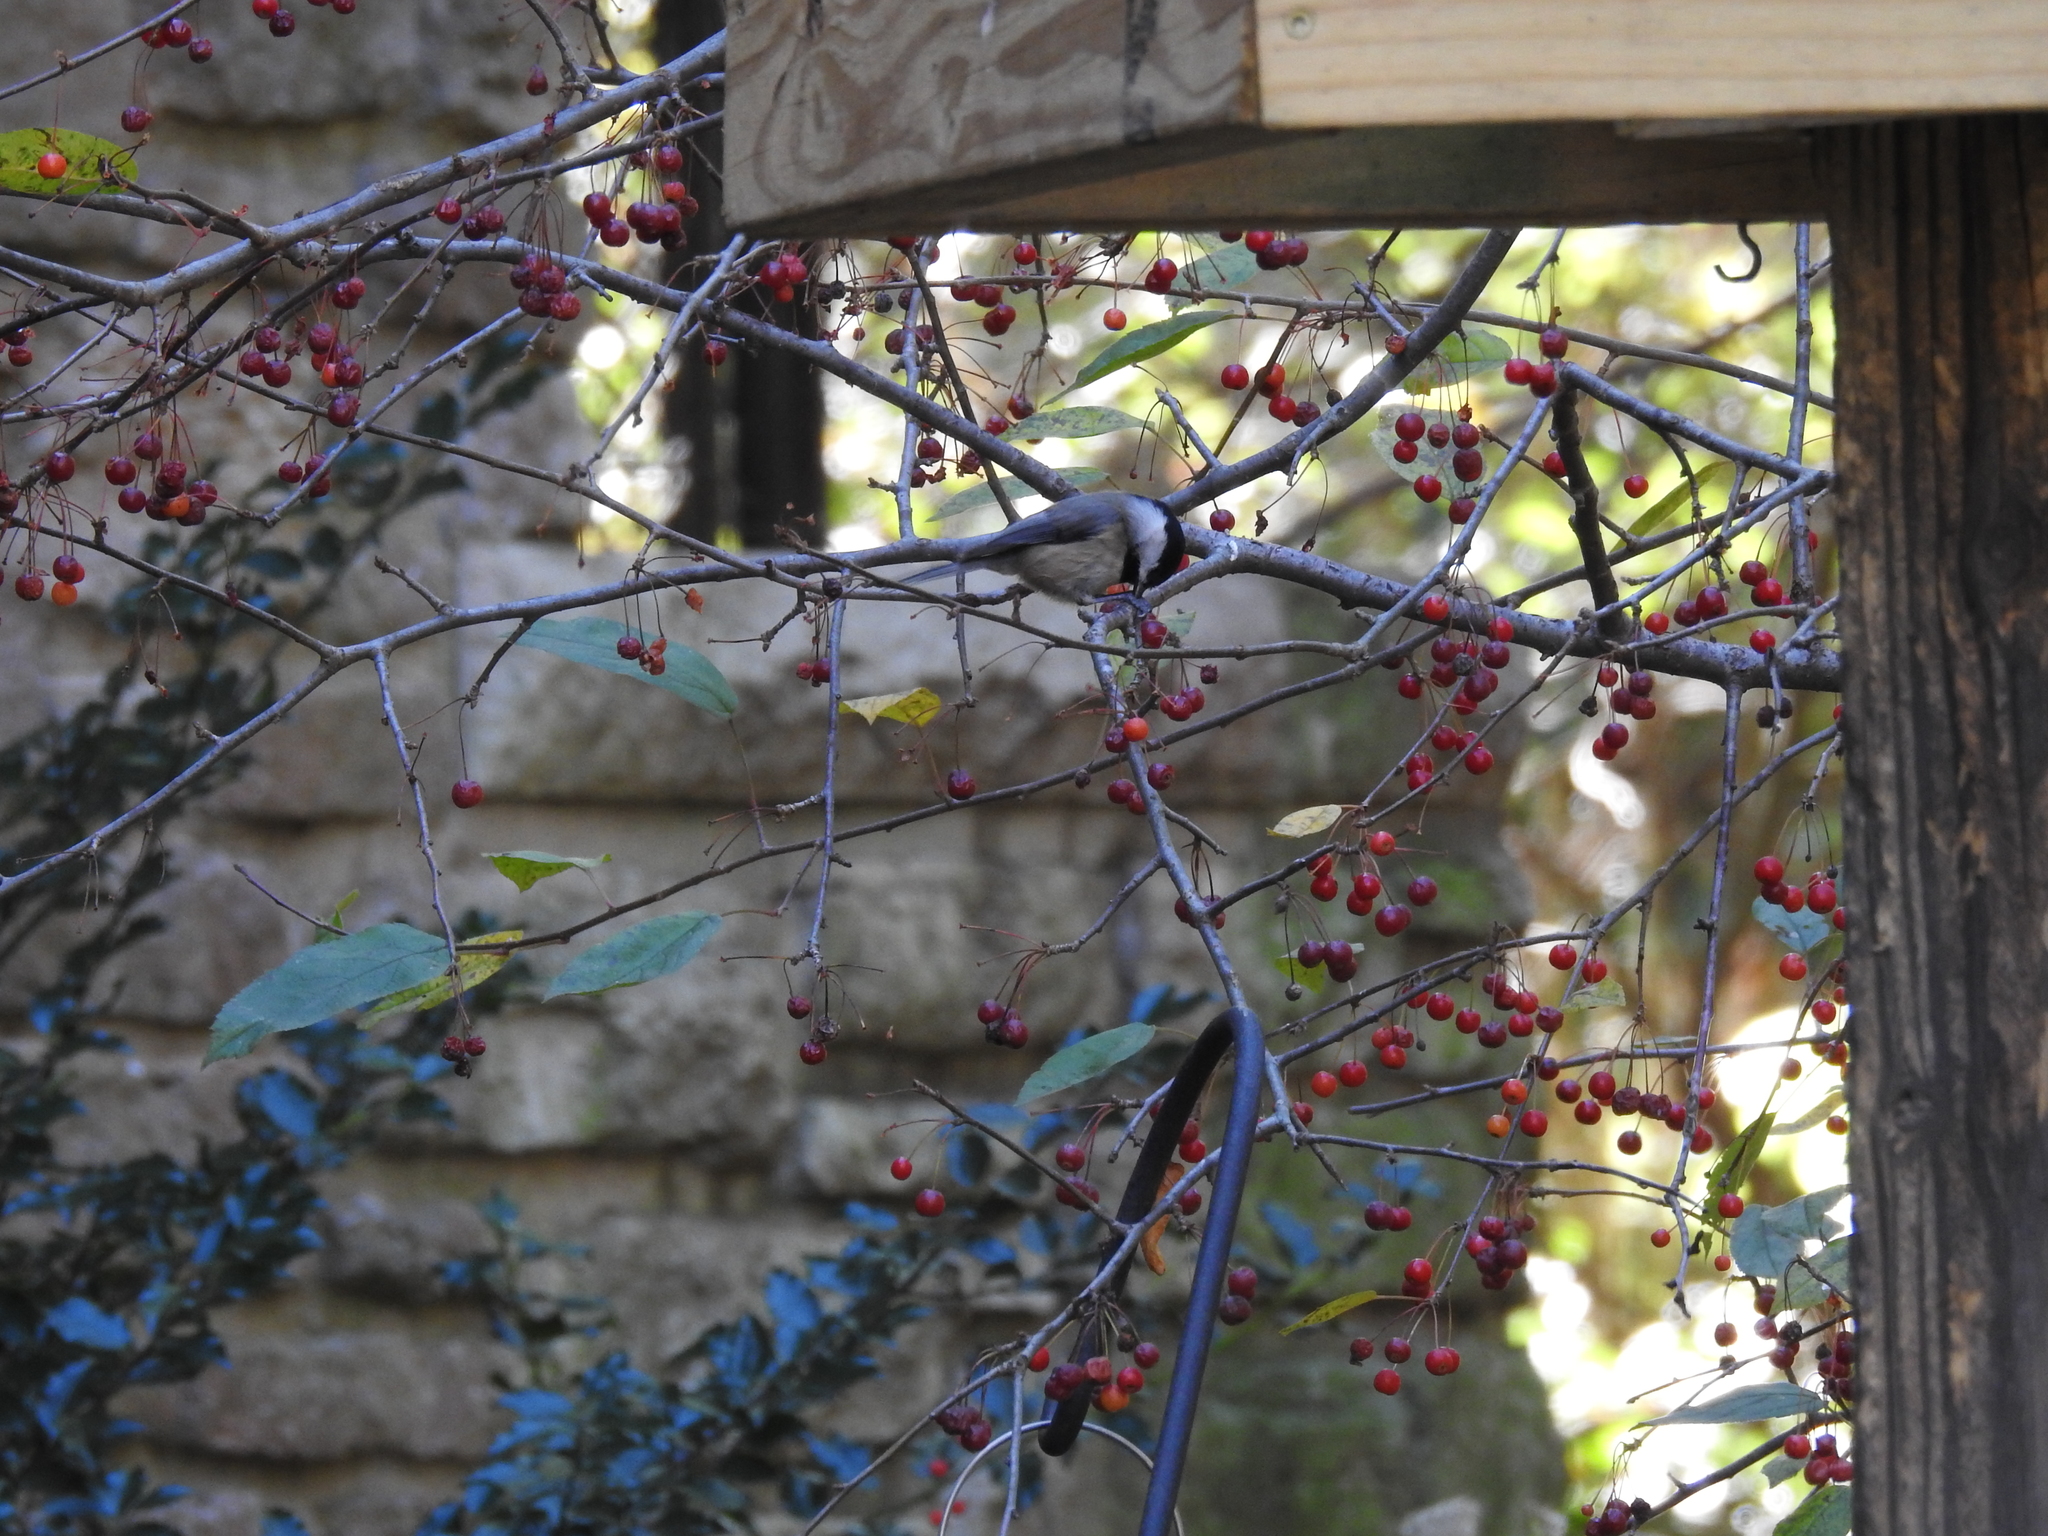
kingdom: Animalia
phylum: Chordata
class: Aves
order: Passeriformes
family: Paridae
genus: Poecile
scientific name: Poecile carolinensis
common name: Carolina chickadee
